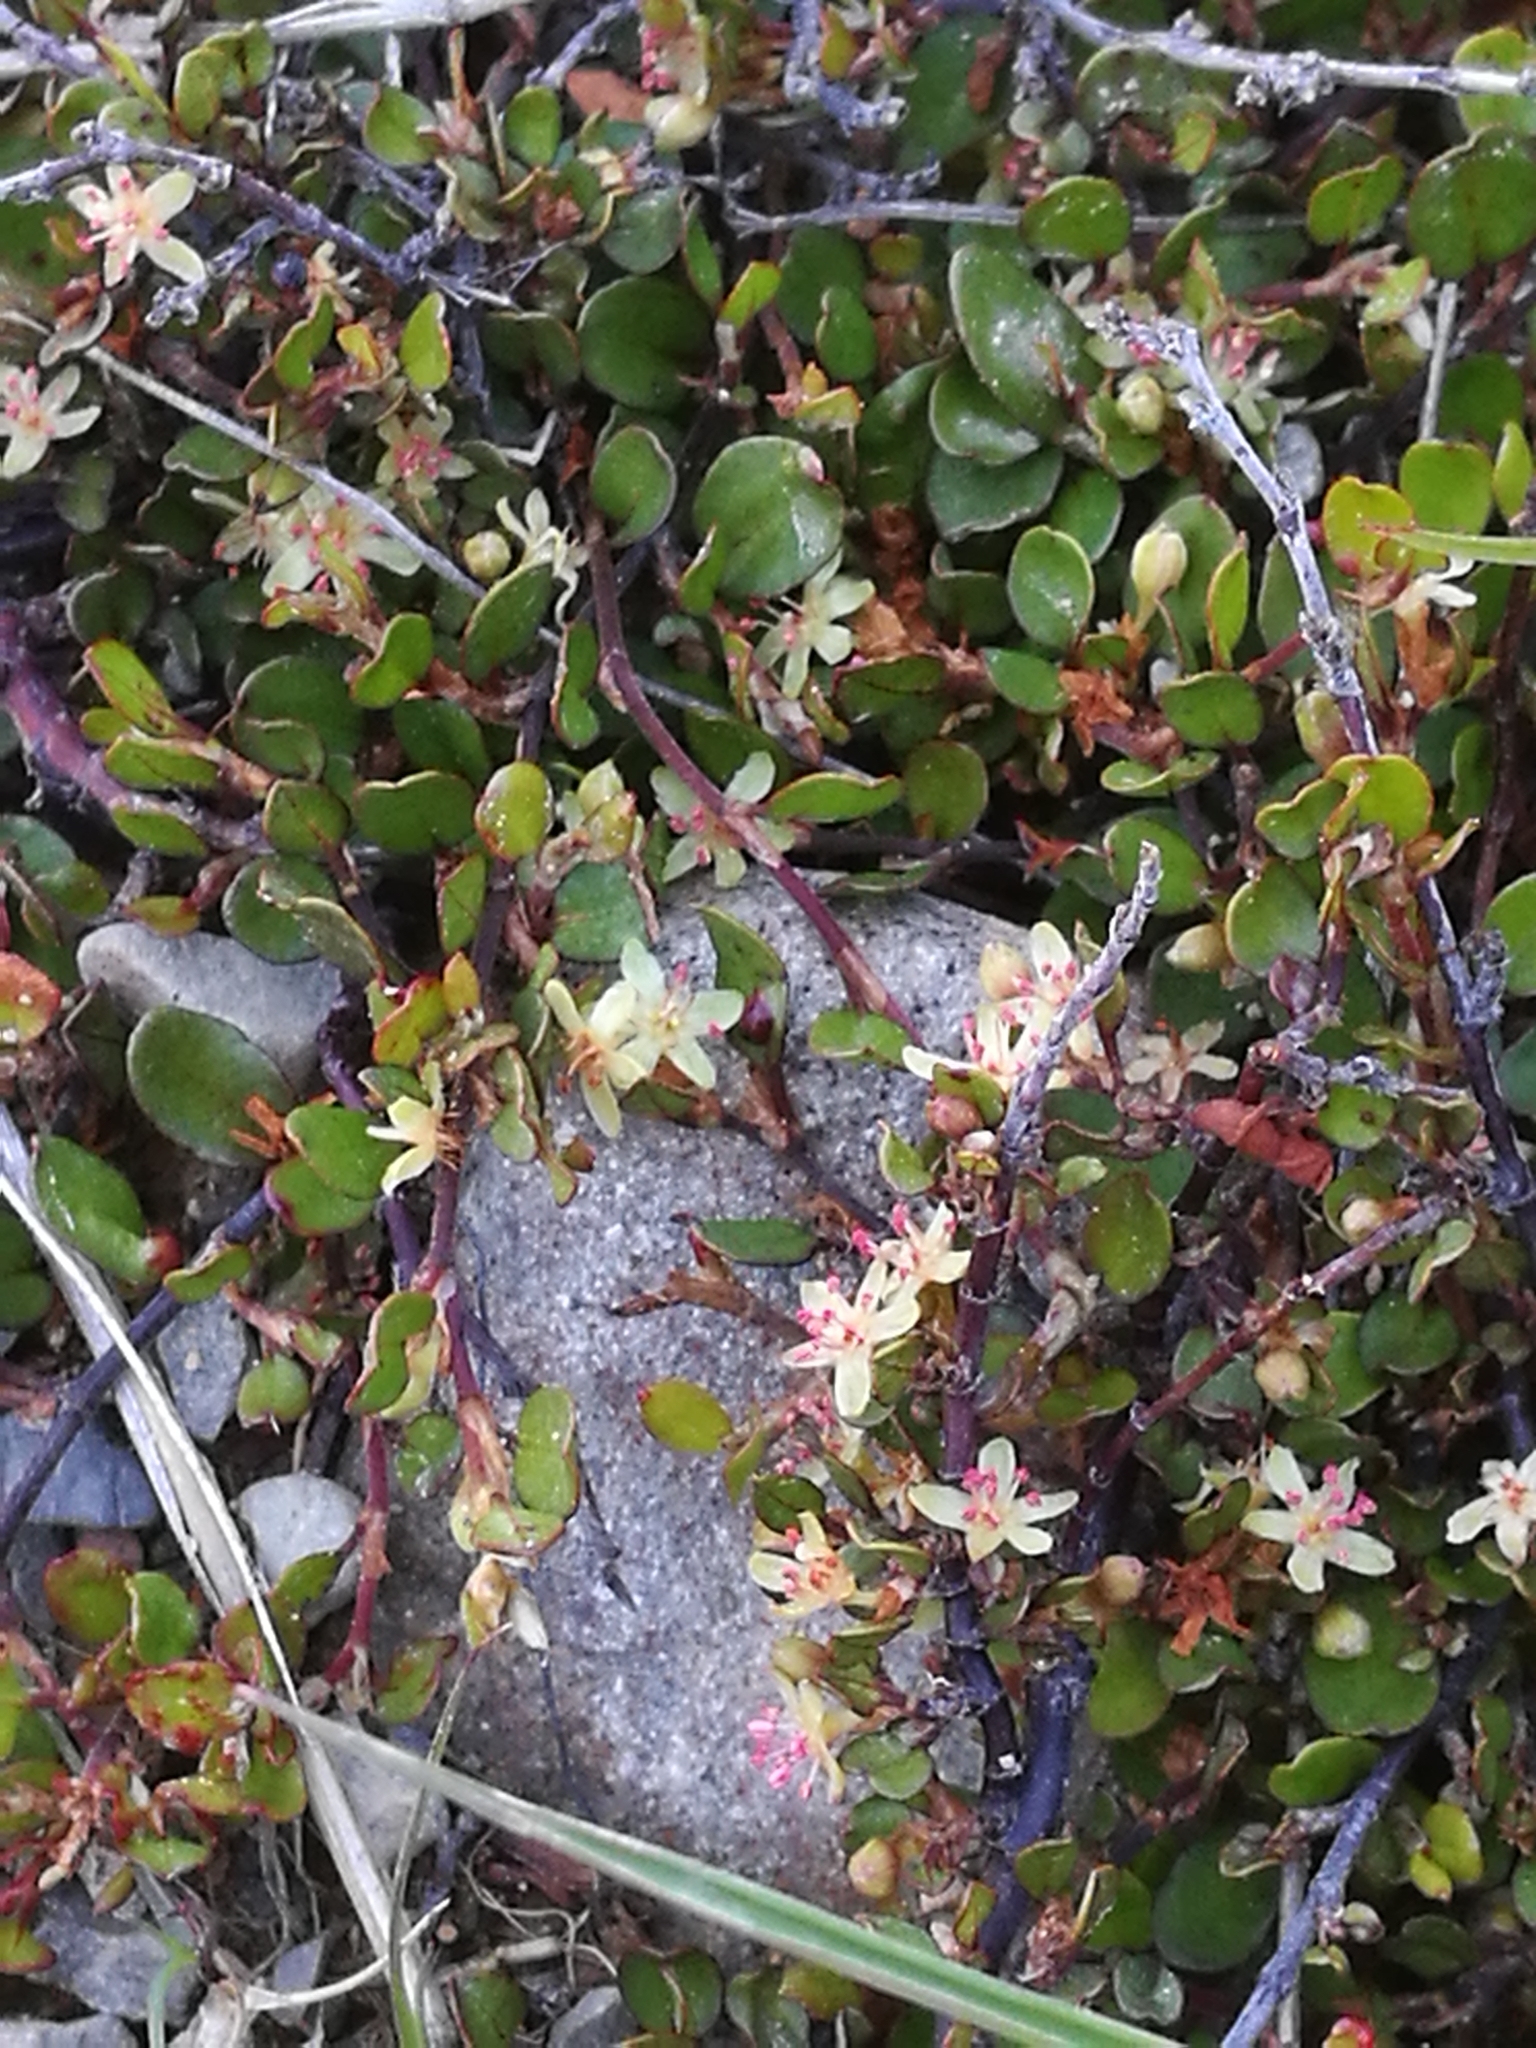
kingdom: Plantae
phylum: Tracheophyta
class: Magnoliopsida
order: Caryophyllales
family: Polygonaceae
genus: Muehlenbeckia
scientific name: Muehlenbeckia axillaris
